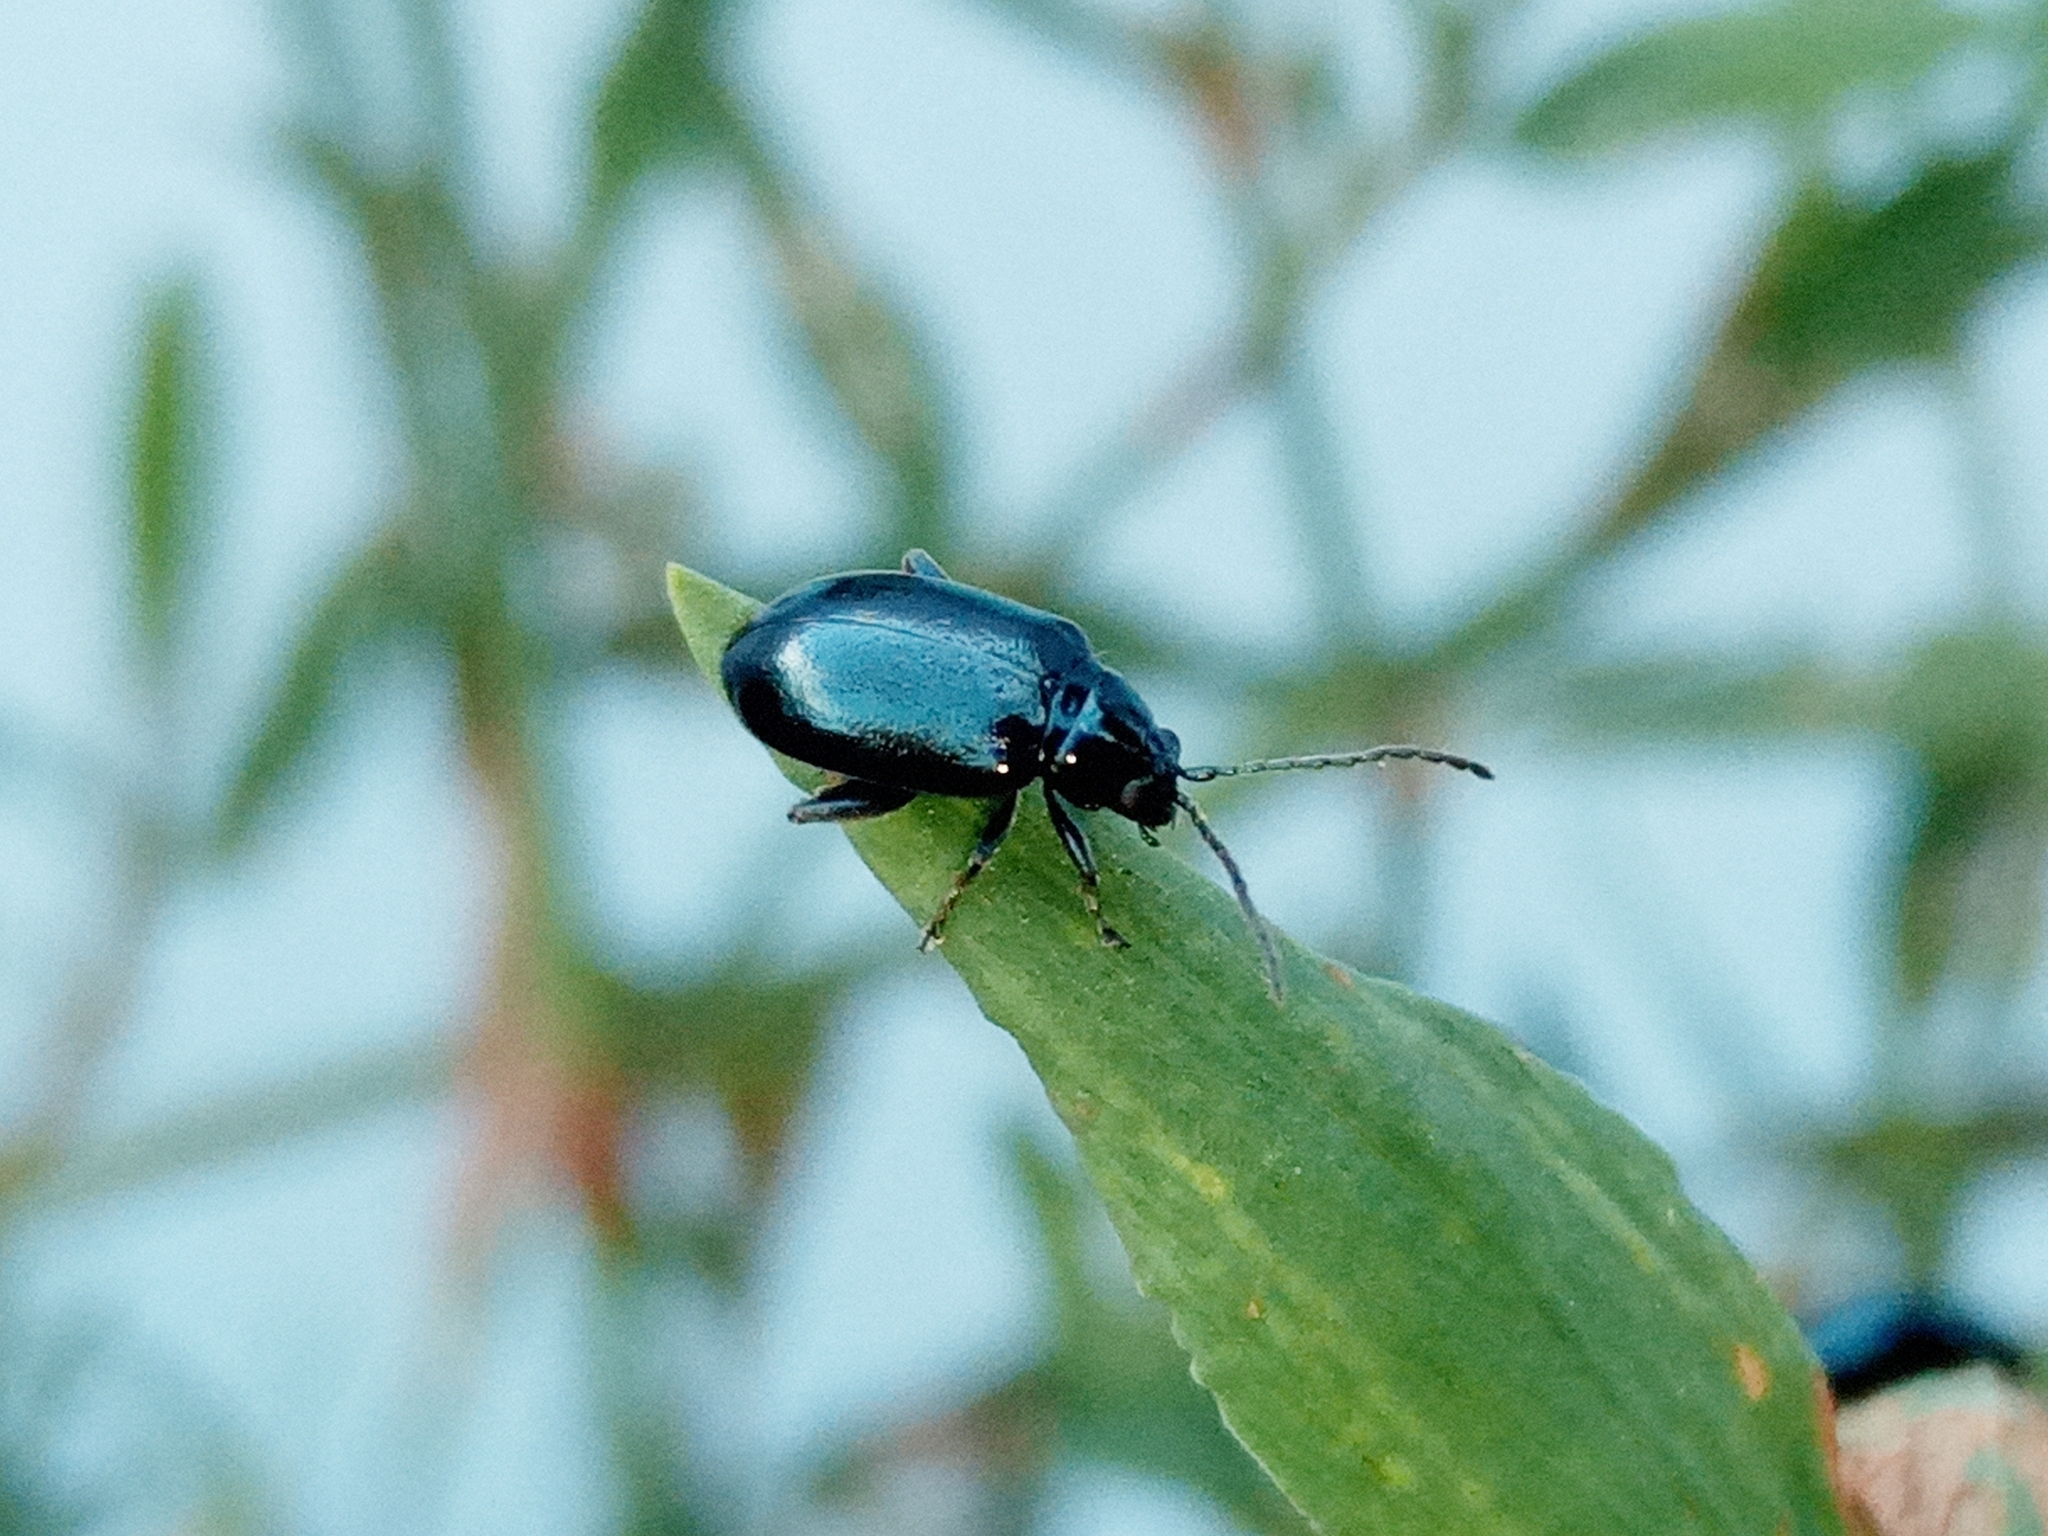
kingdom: Animalia
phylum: Arthropoda
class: Insecta
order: Coleoptera
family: Chrysomelidae
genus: Altica
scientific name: Altica
